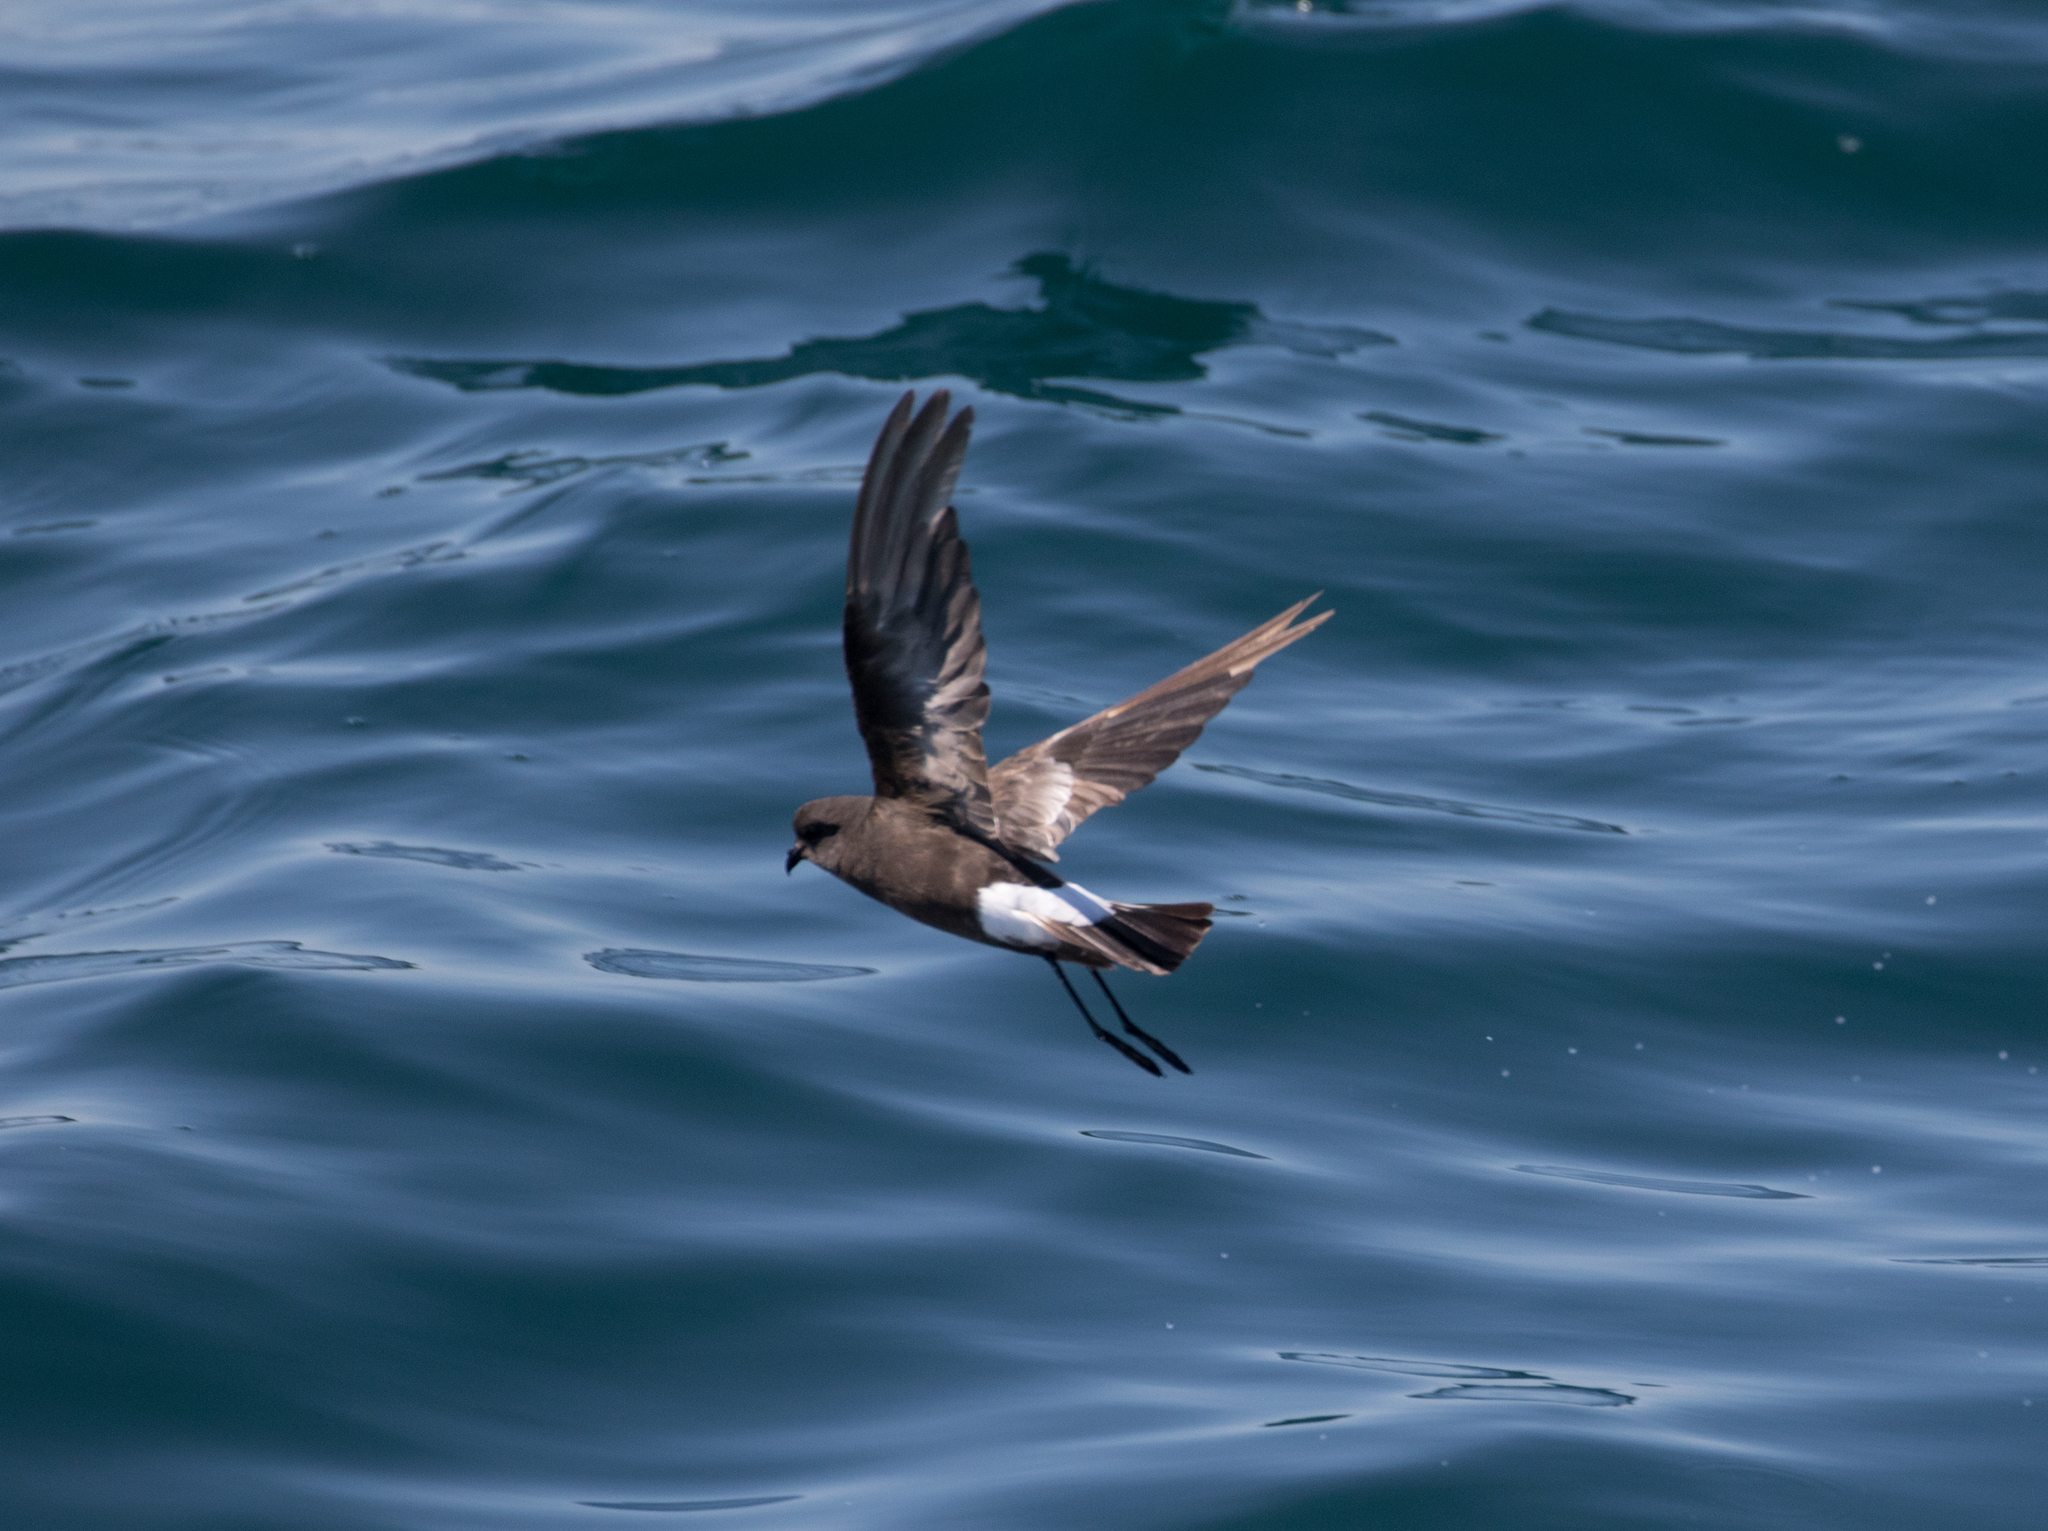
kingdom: Animalia
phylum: Chordata
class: Aves
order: Procellariiformes
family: Hydrobatidae
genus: Oceanites
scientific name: Oceanites oceanicus
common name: Wilson's storm petrel
